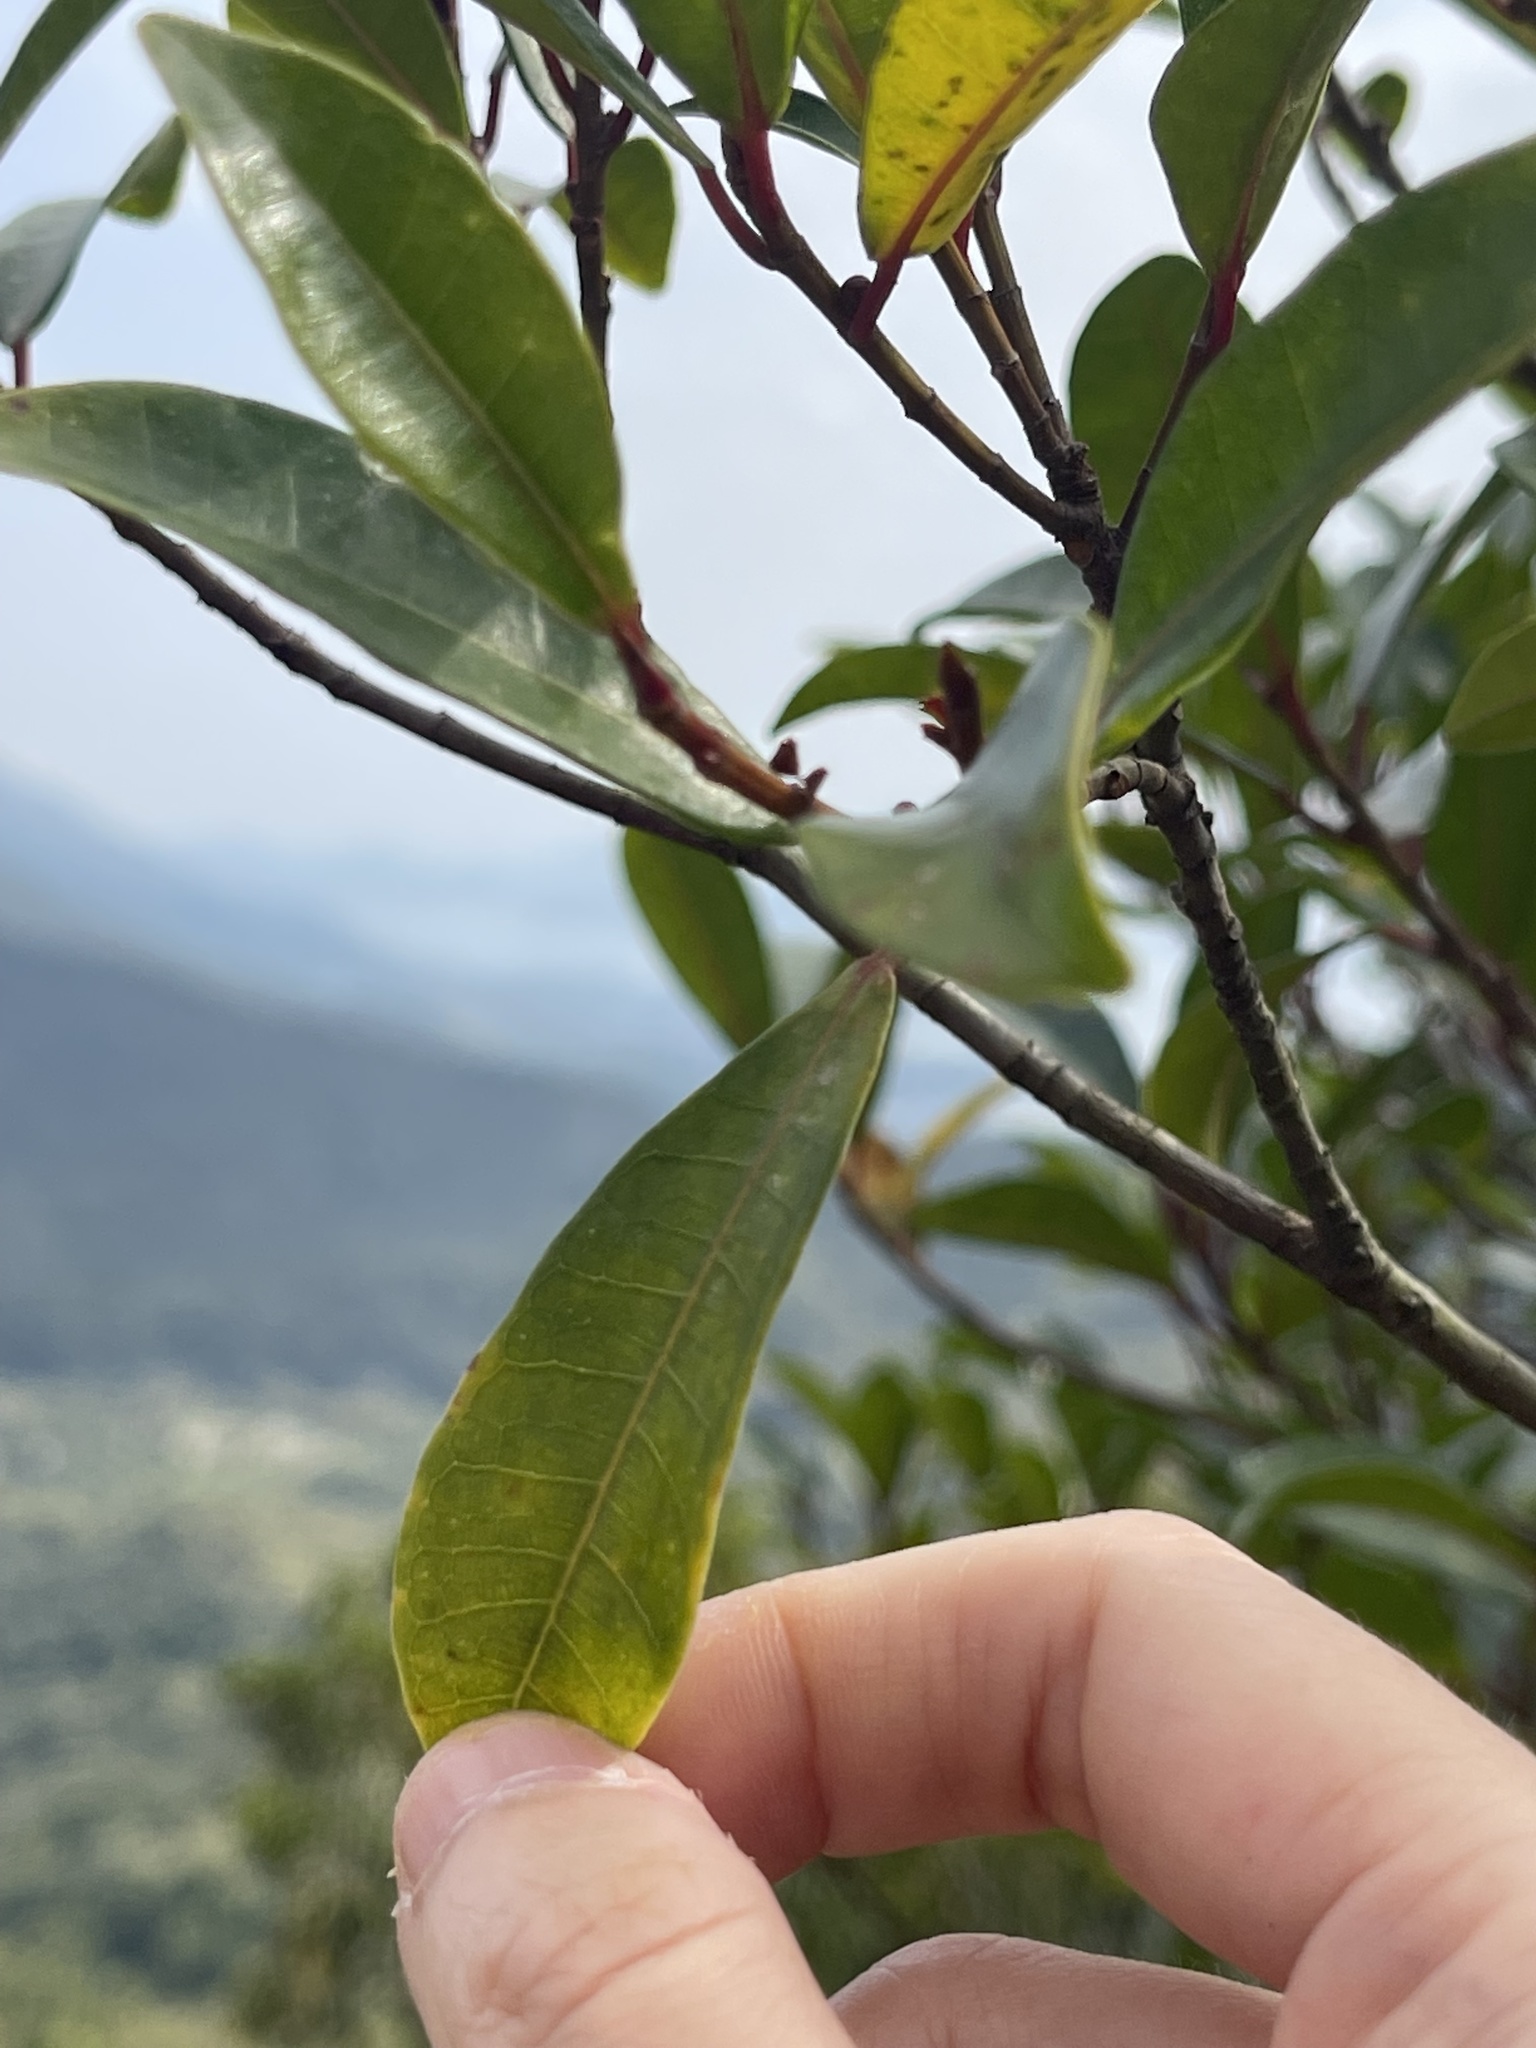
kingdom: Plantae
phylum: Tracheophyta
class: Magnoliopsida
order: Rosales
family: Moraceae
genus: Ficus
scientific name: Ficus variolosa
